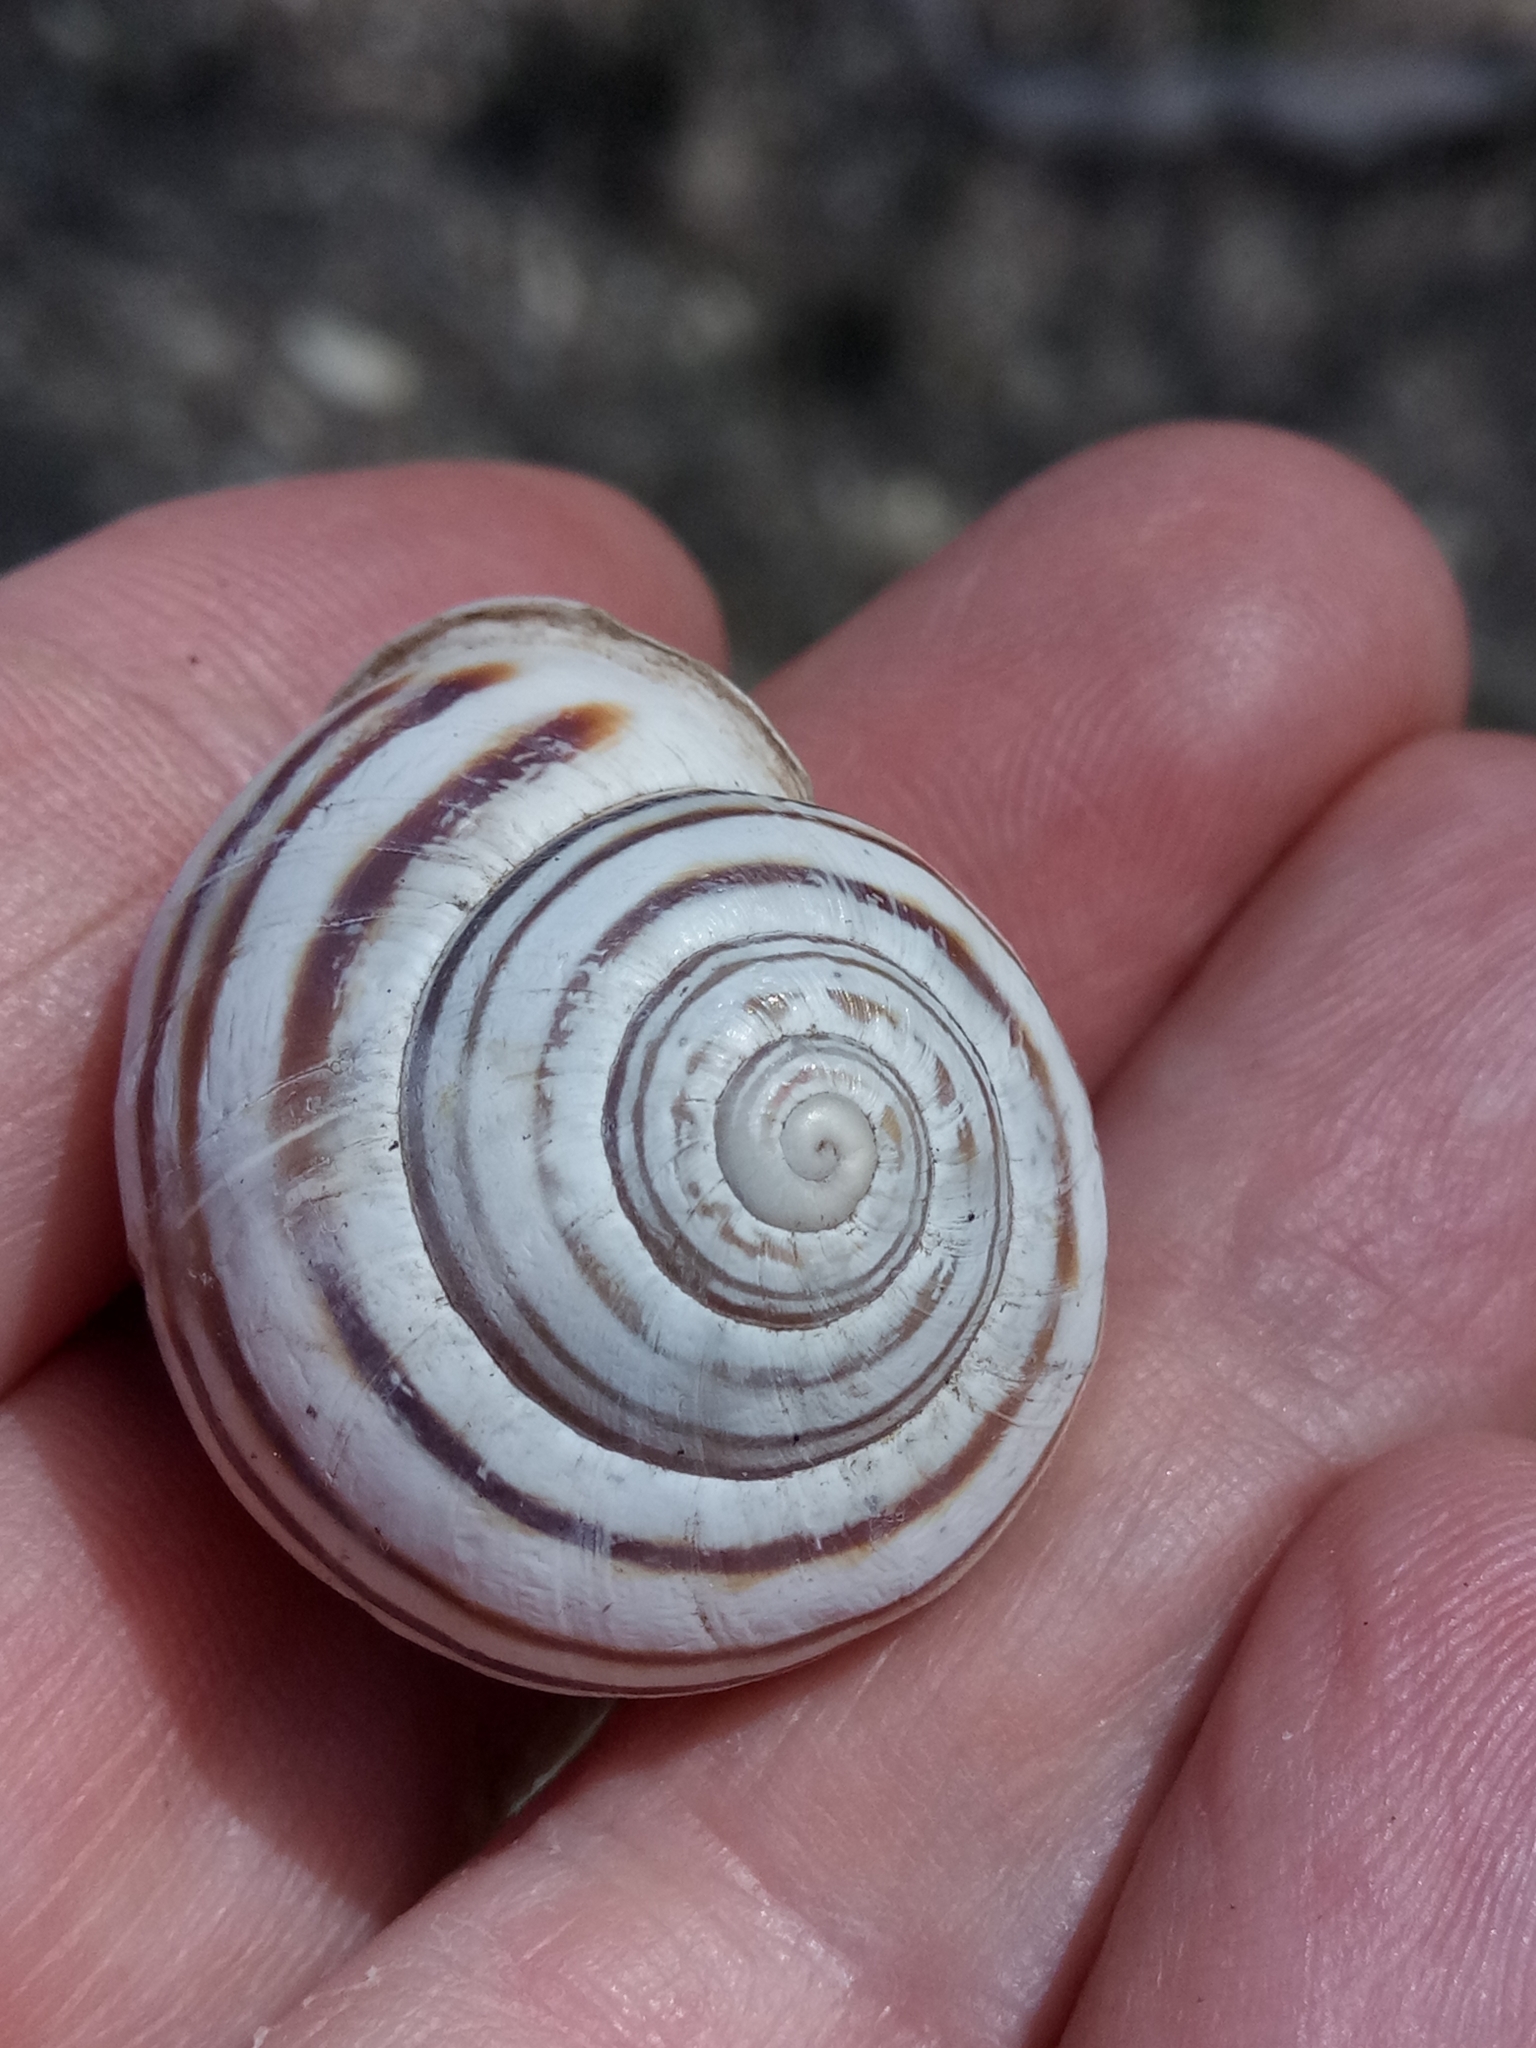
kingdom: Animalia
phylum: Mollusca
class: Gastropoda
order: Stylommatophora
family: Helicidae
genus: Eobania
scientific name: Eobania constantina
